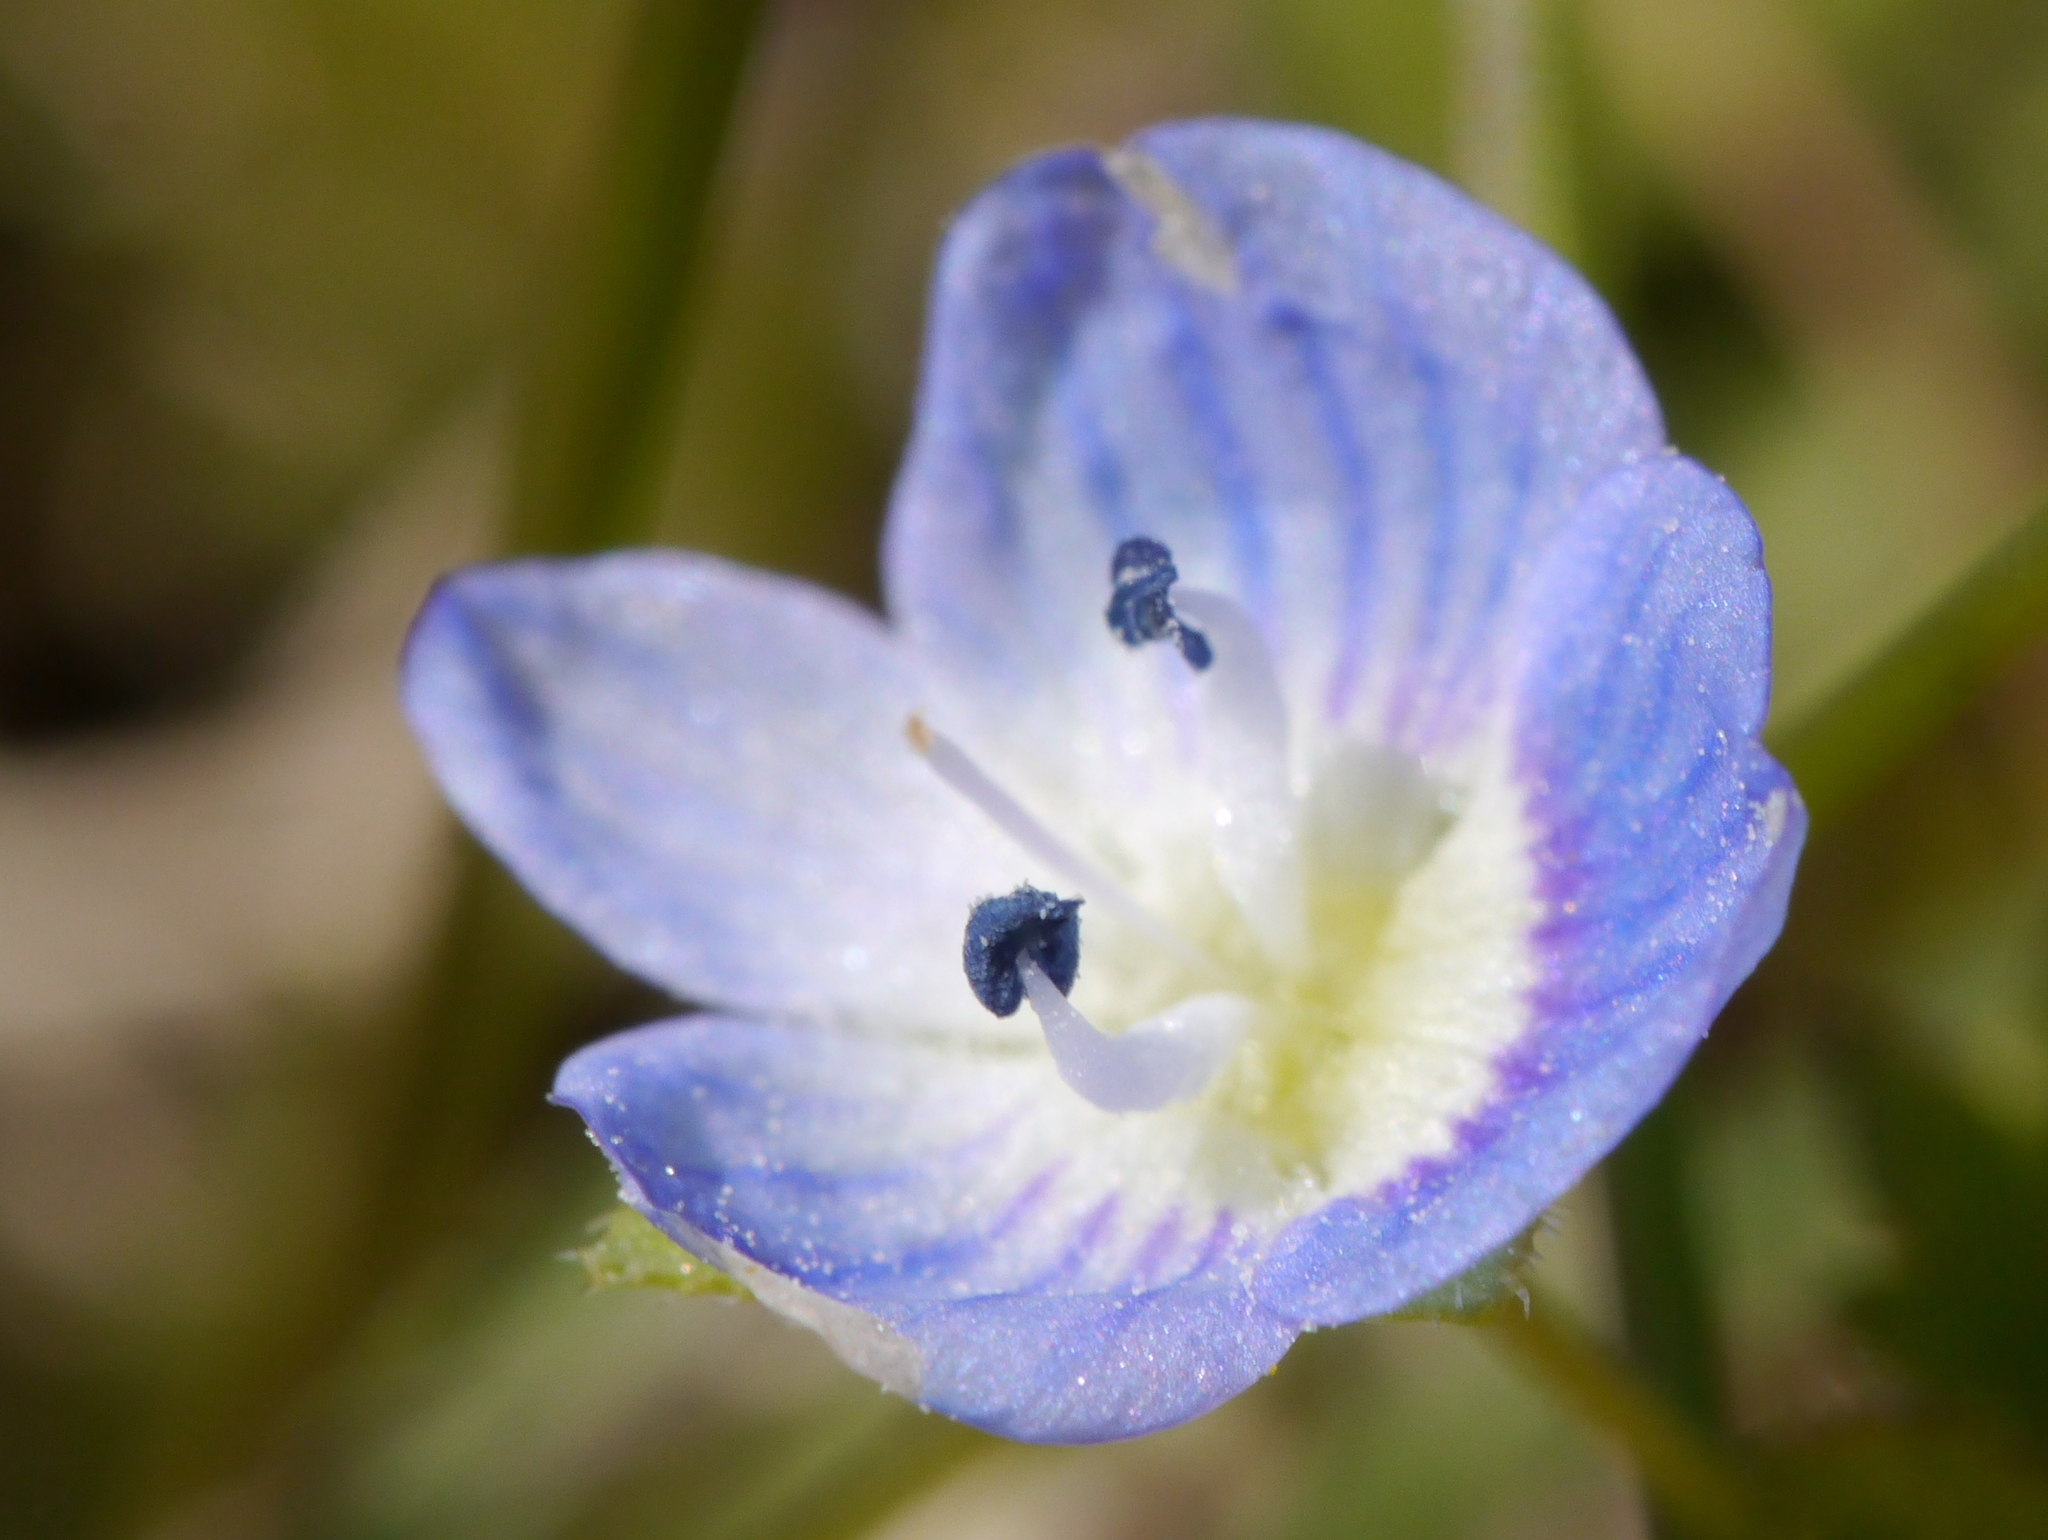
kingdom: Plantae
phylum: Tracheophyta
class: Magnoliopsida
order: Lamiales
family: Plantaginaceae
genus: Veronica
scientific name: Veronica persica
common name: Common field-speedwell
